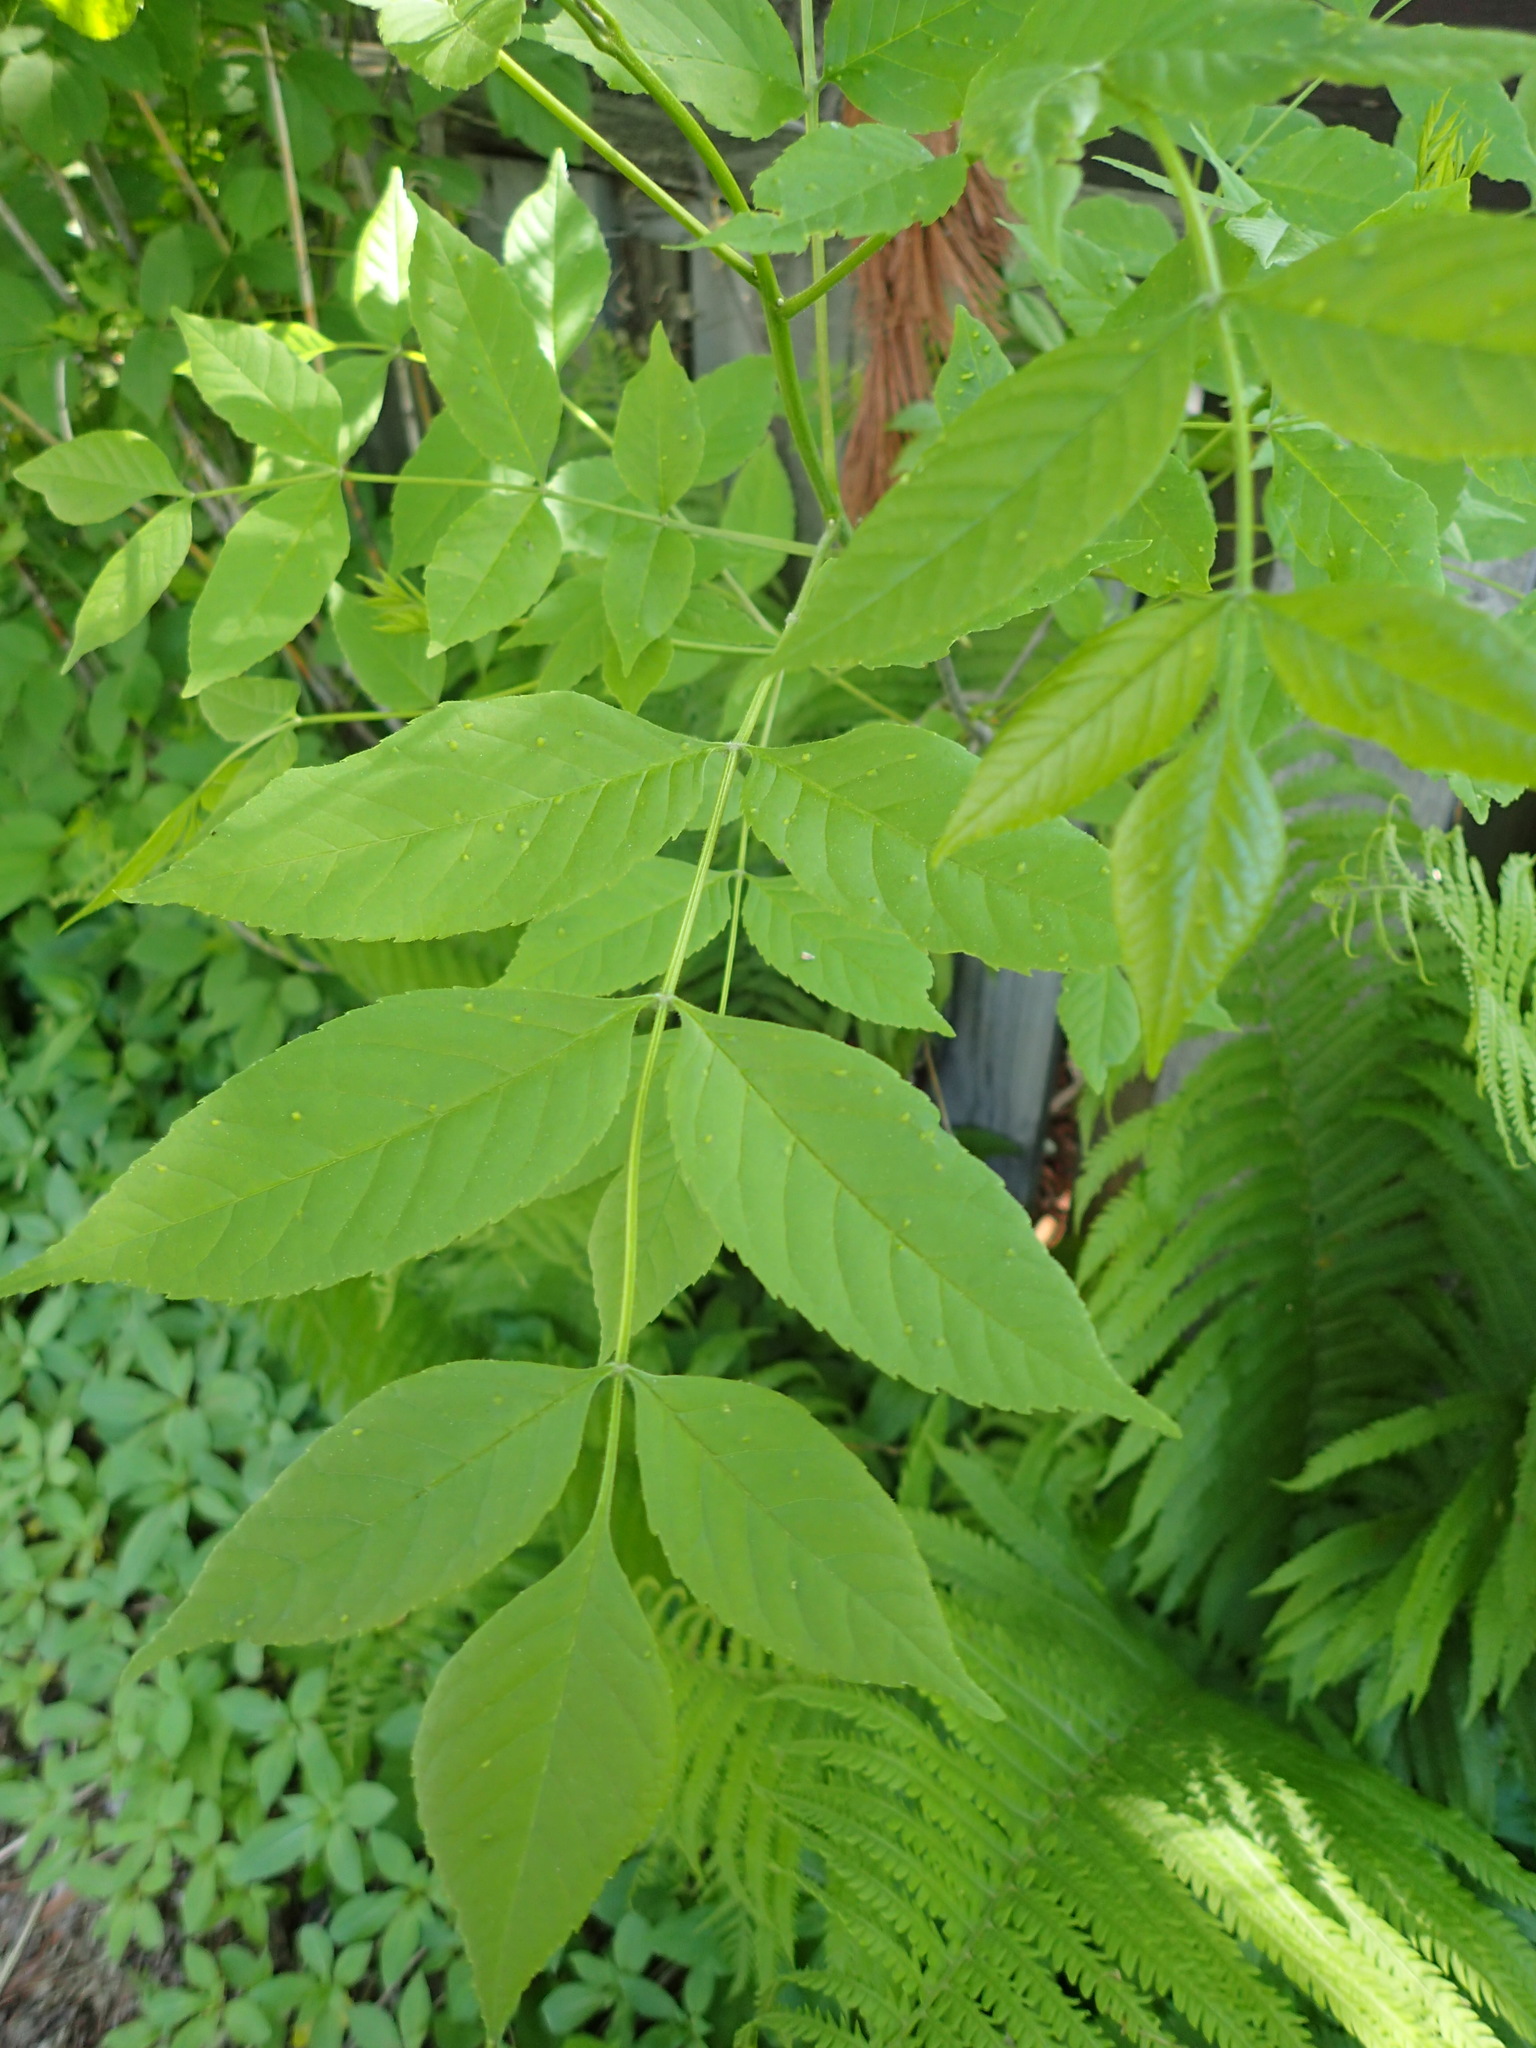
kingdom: Plantae
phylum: Tracheophyta
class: Magnoliopsida
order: Lamiales
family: Oleaceae
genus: Fraxinus
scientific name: Fraxinus pennsylvanica
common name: Green ash
